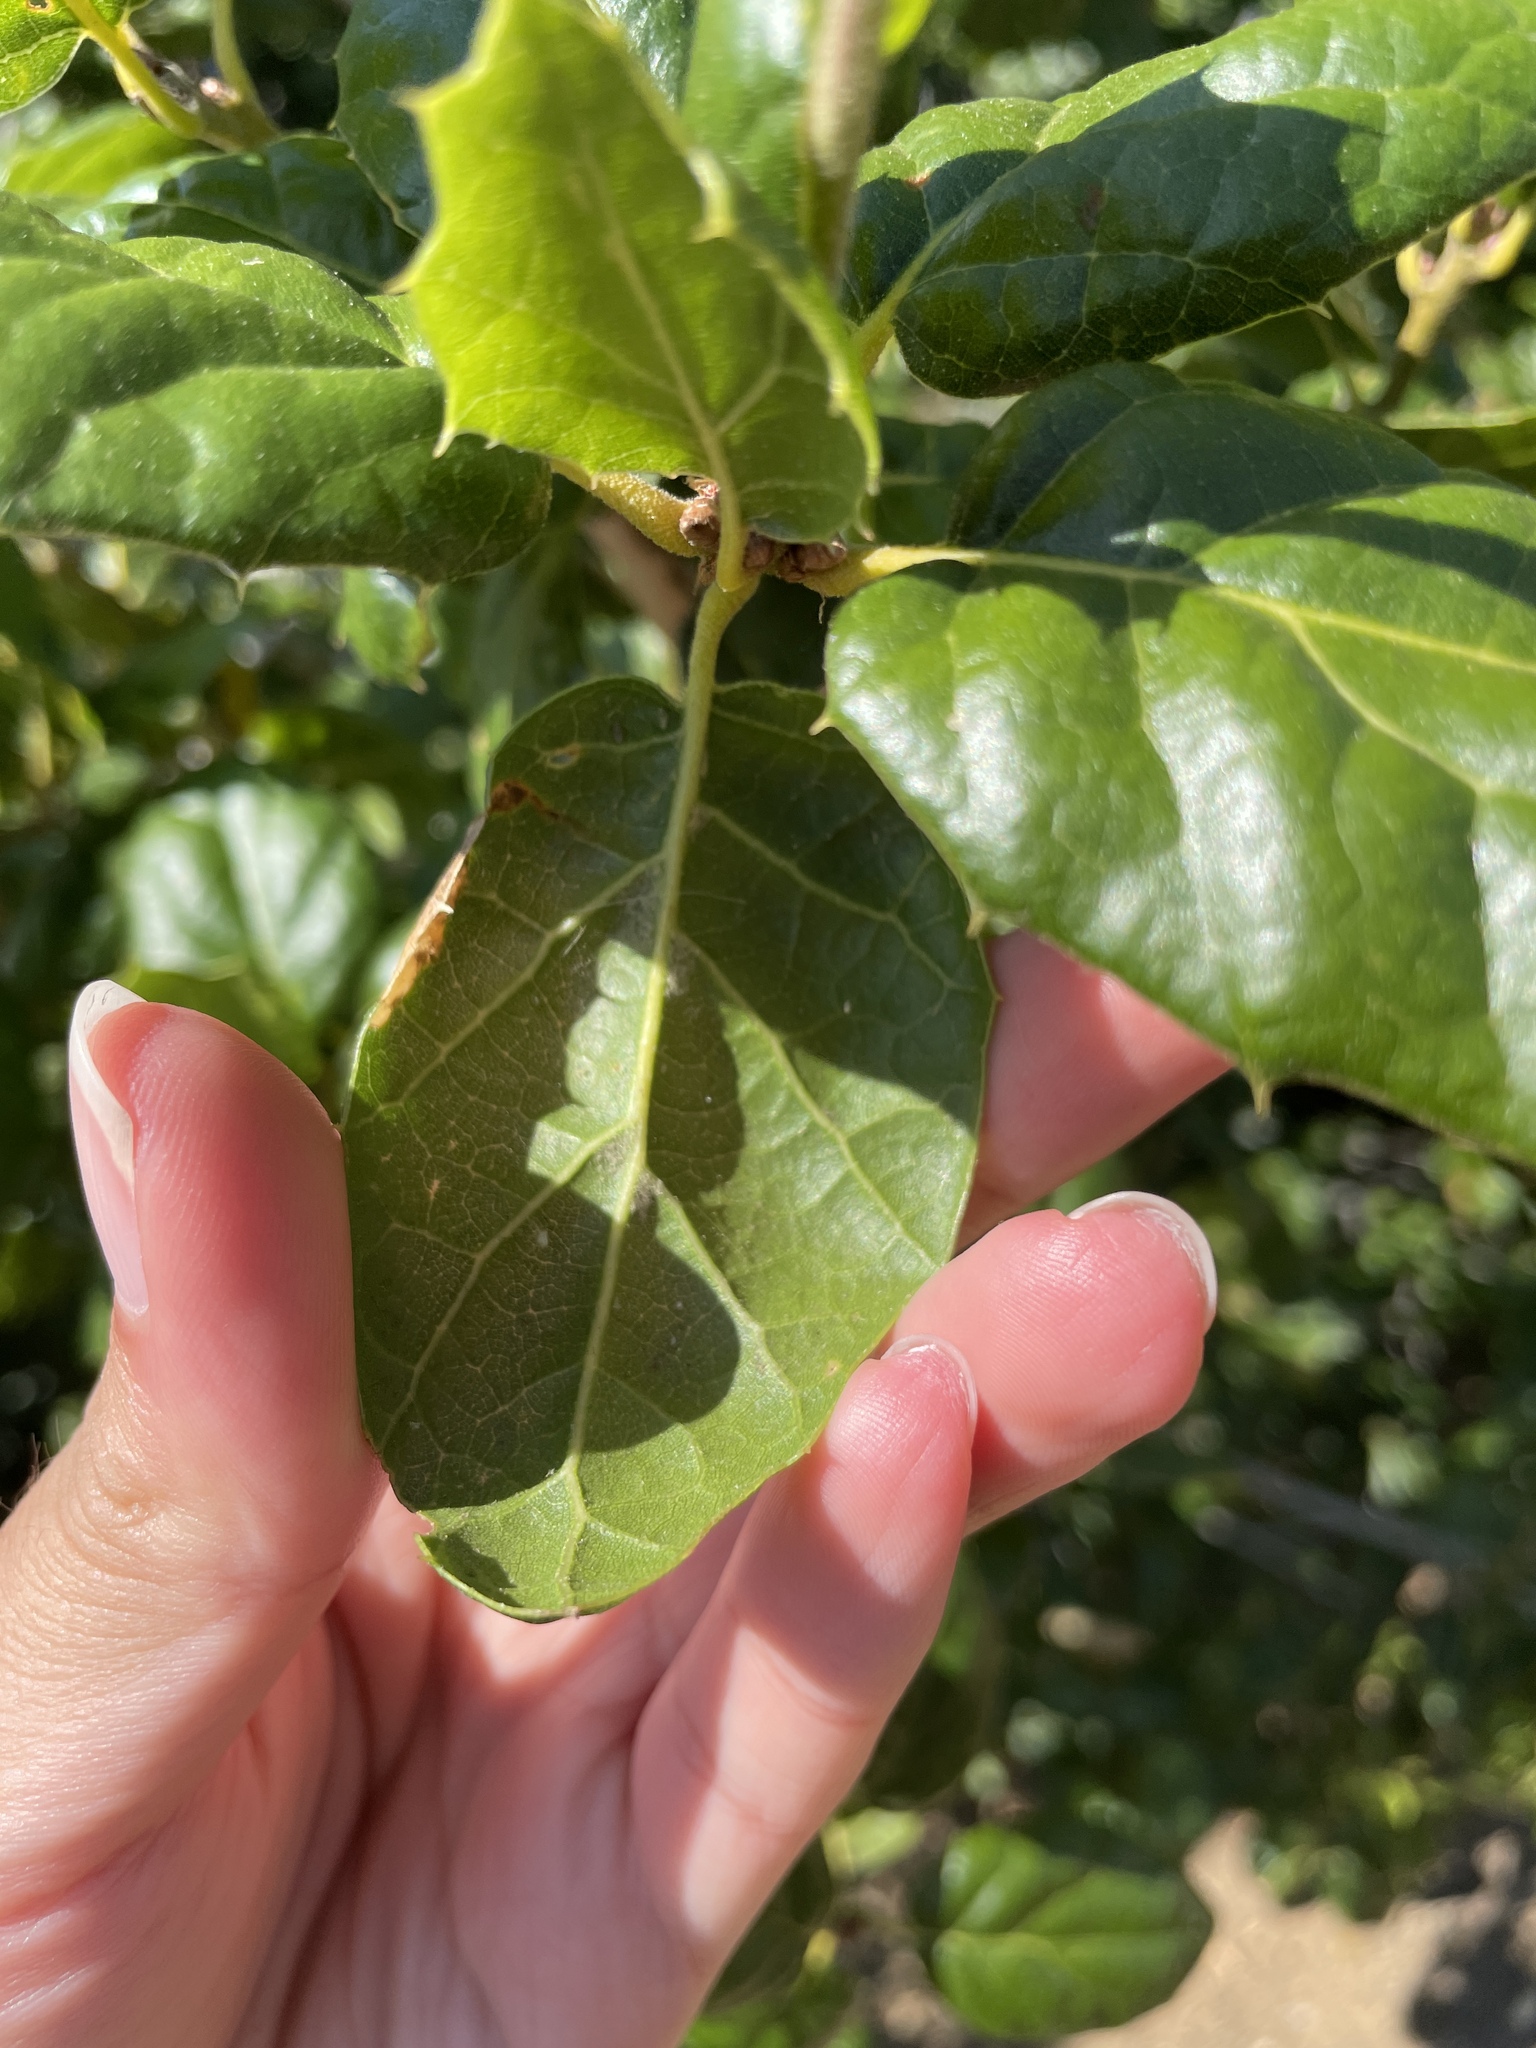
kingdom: Plantae
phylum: Tracheophyta
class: Magnoliopsida
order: Fagales
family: Fagaceae
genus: Quercus
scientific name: Quercus agrifolia
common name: California live oak
